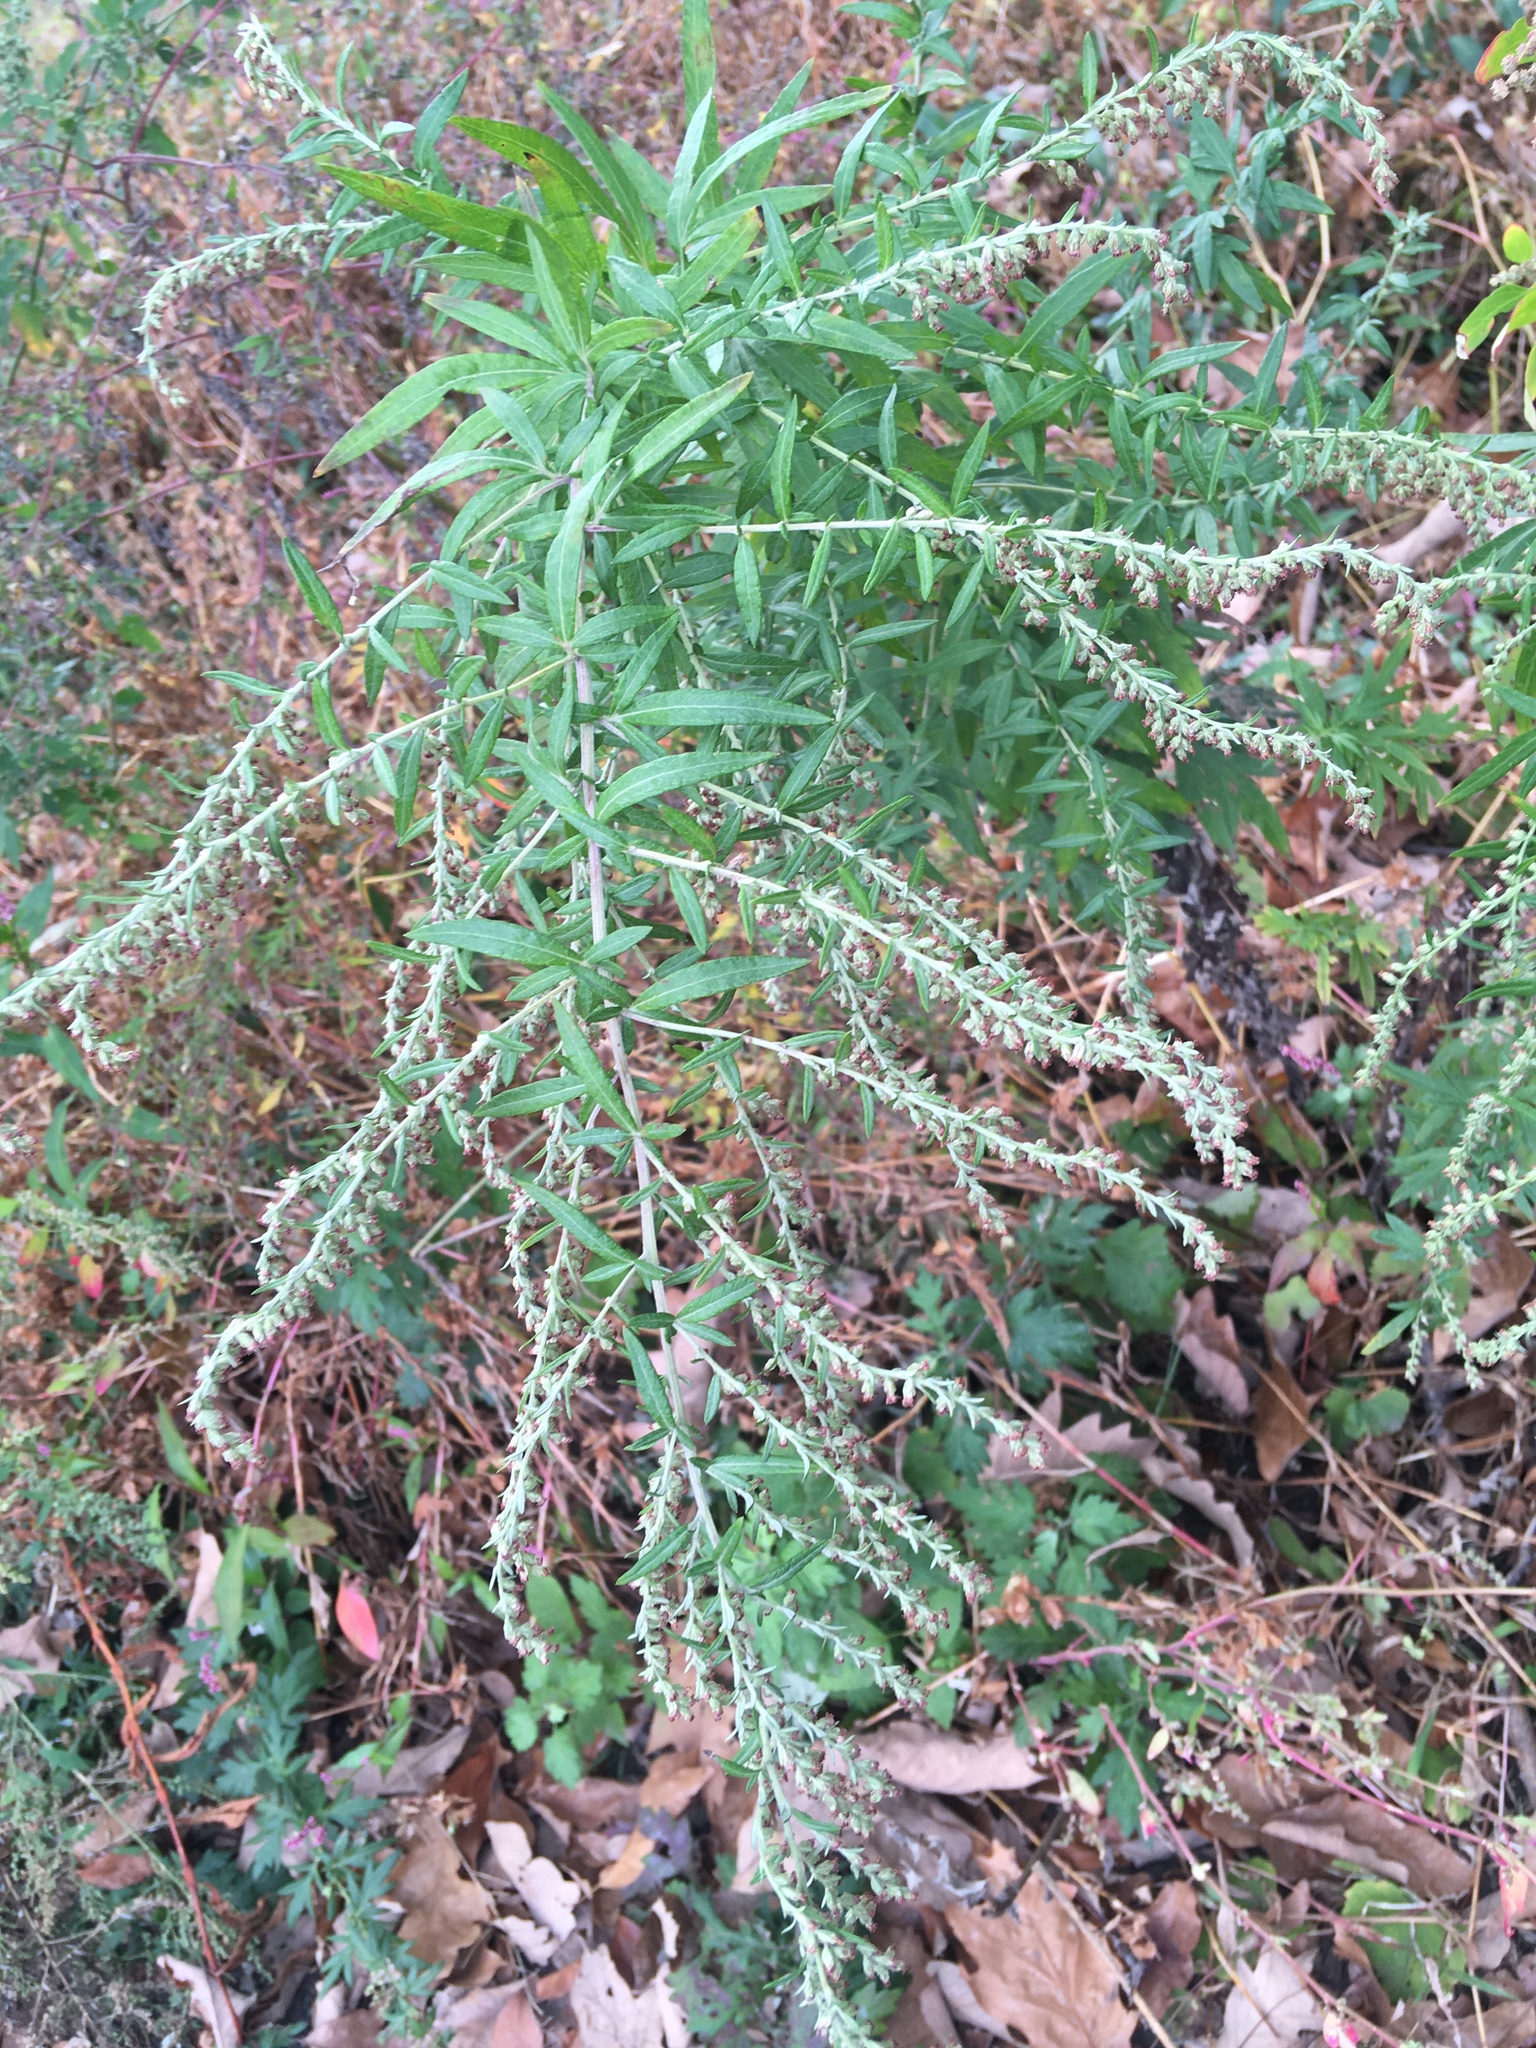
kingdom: Plantae
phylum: Tracheophyta
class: Magnoliopsida
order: Asterales
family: Asteraceae
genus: Artemisia
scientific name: Artemisia vulgaris
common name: Mugwort
